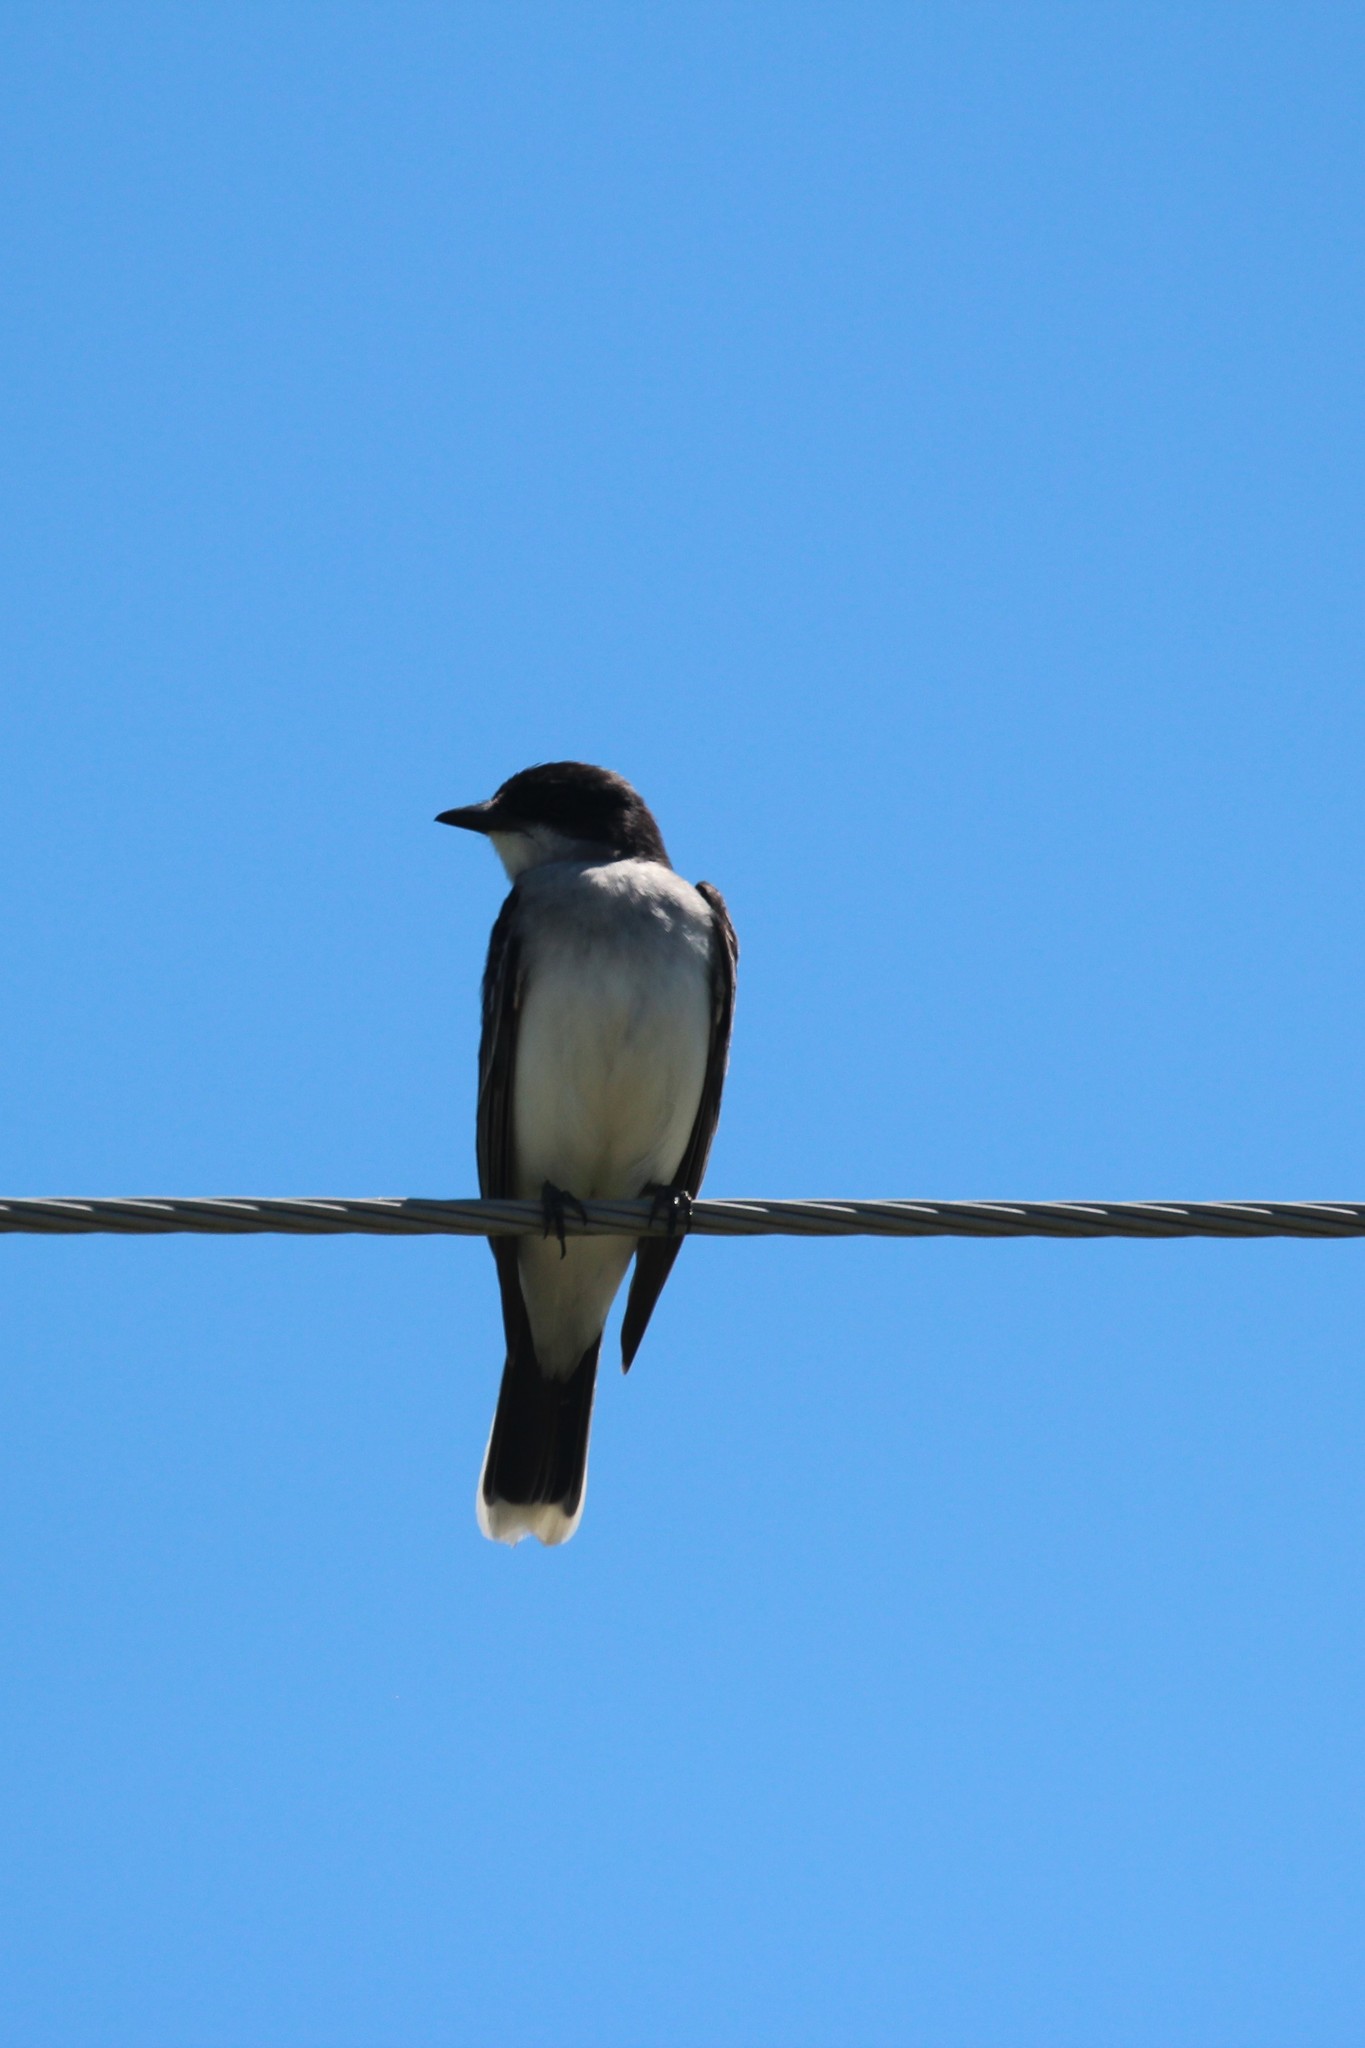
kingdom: Animalia
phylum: Chordata
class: Aves
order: Passeriformes
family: Tyrannidae
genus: Tyrannus
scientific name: Tyrannus tyrannus
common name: Eastern kingbird
